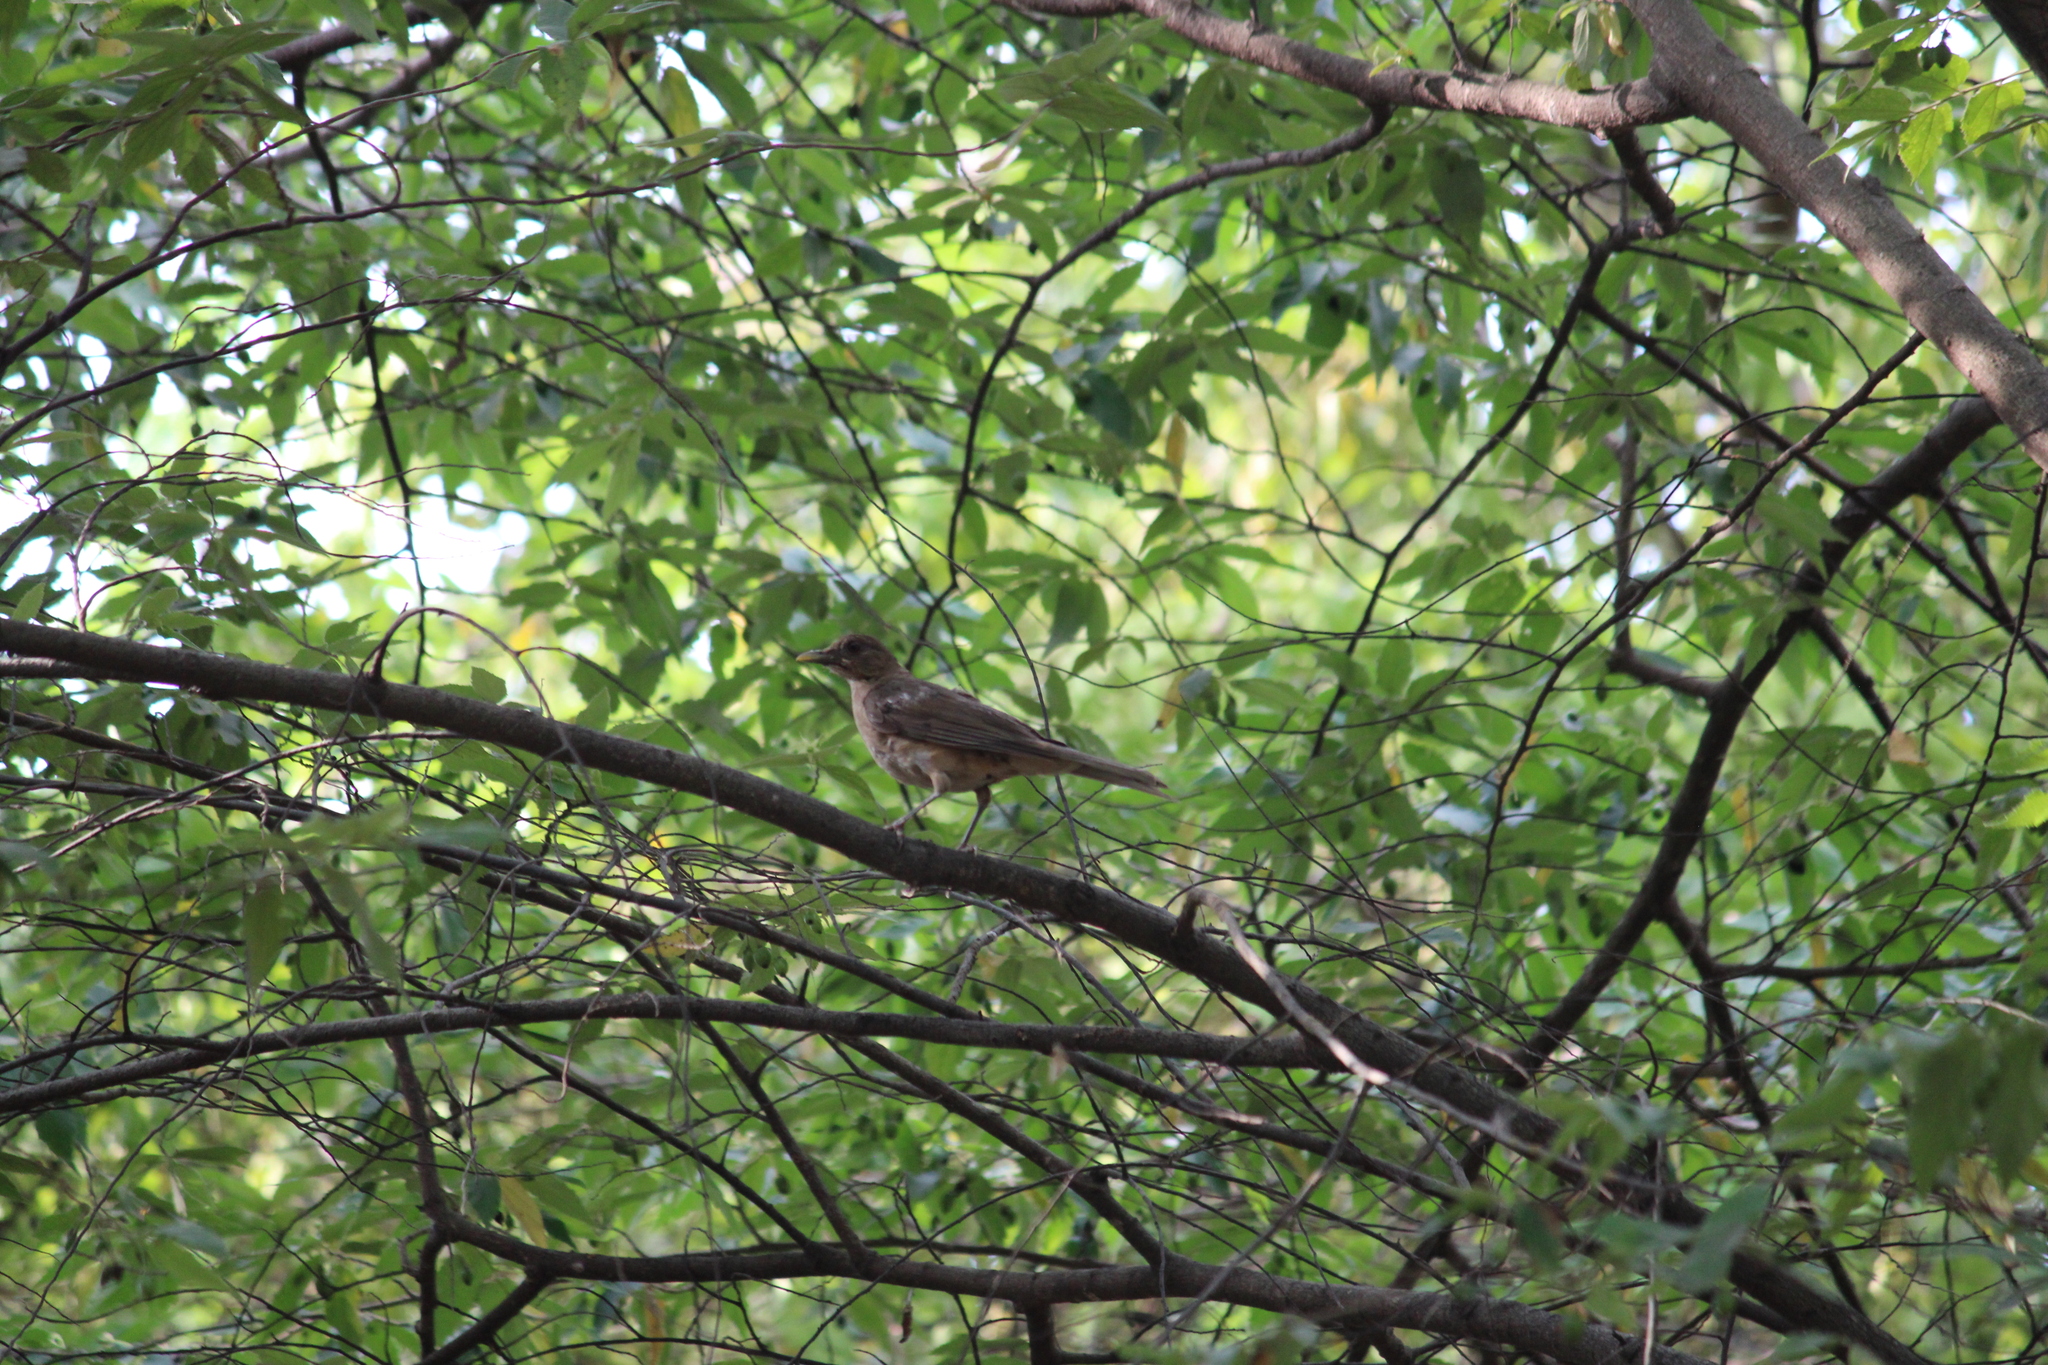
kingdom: Animalia
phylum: Chordata
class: Aves
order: Passeriformes
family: Turdidae
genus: Turdus
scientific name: Turdus grayi
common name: Clay-colored thrush
